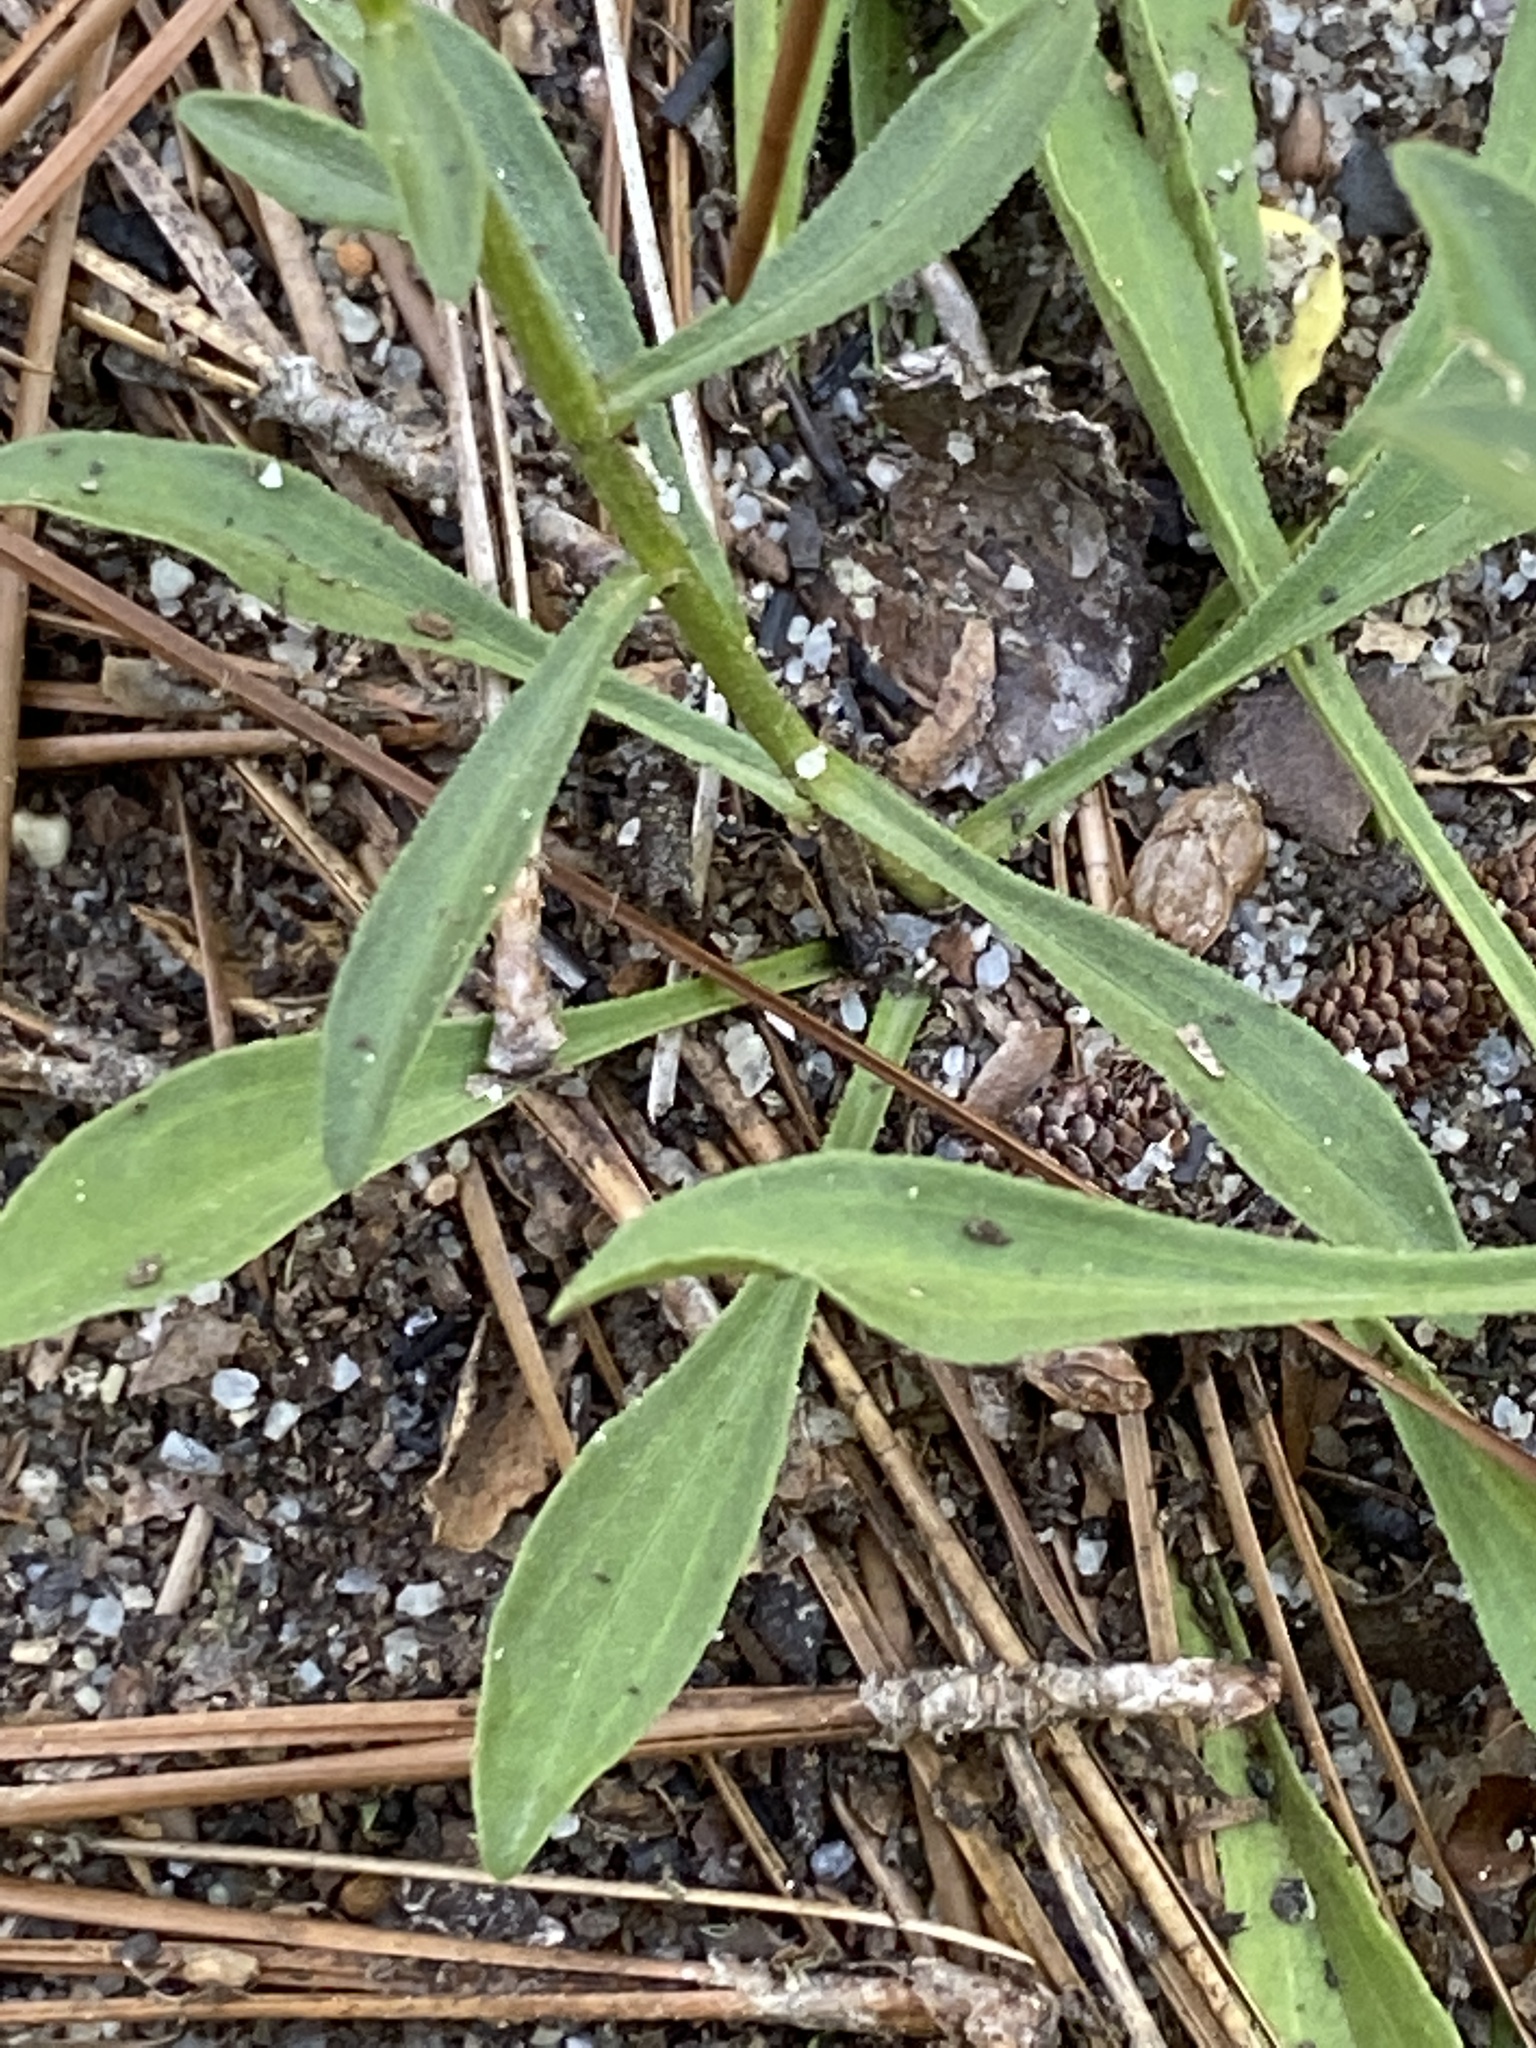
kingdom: Plantae
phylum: Tracheophyta
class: Magnoliopsida
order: Asterales
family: Asteraceae
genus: Carphephorus
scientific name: Carphephorus bellidifolius
